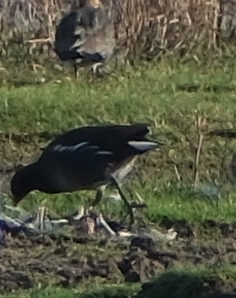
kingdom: Animalia
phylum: Chordata
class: Aves
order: Gruiformes
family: Rallidae
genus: Gallinula
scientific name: Gallinula chloropus
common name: Common moorhen
